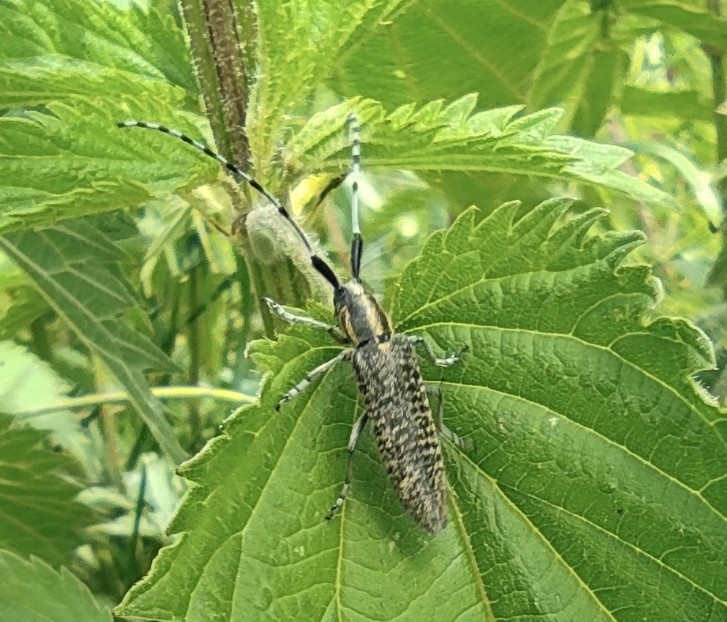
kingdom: Animalia
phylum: Arthropoda
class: Insecta
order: Coleoptera
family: Cerambycidae
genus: Agapanthia
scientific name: Agapanthia villosoviridescens
